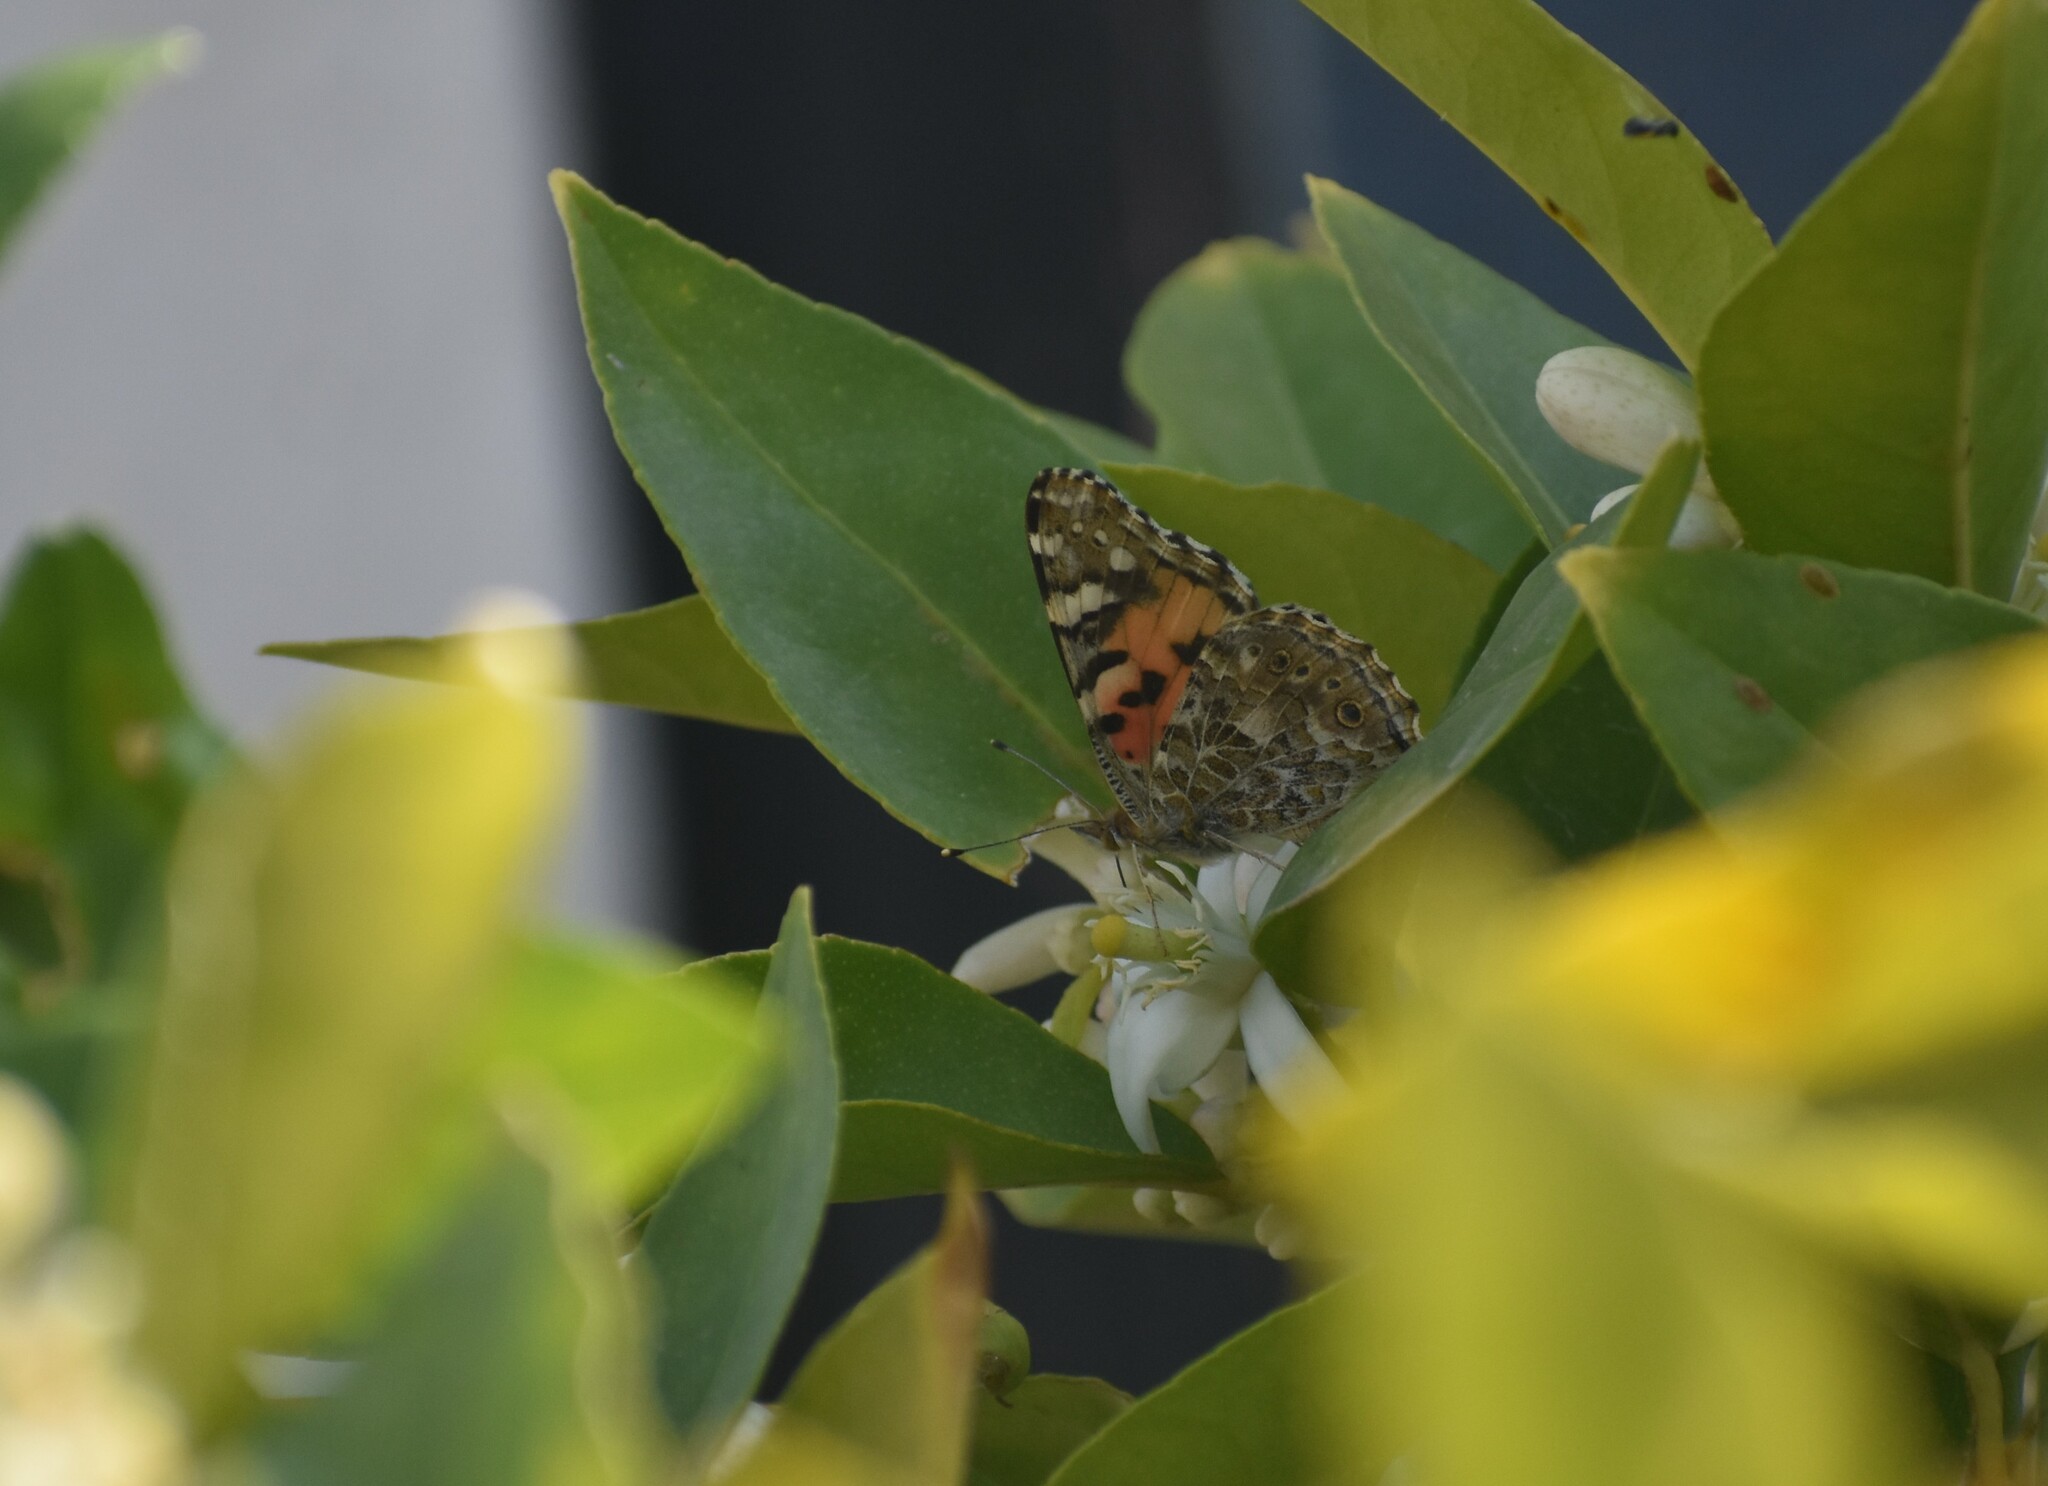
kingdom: Animalia
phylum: Arthropoda
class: Insecta
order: Lepidoptera
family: Nymphalidae
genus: Vanessa
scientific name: Vanessa cardui
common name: Painted lady
